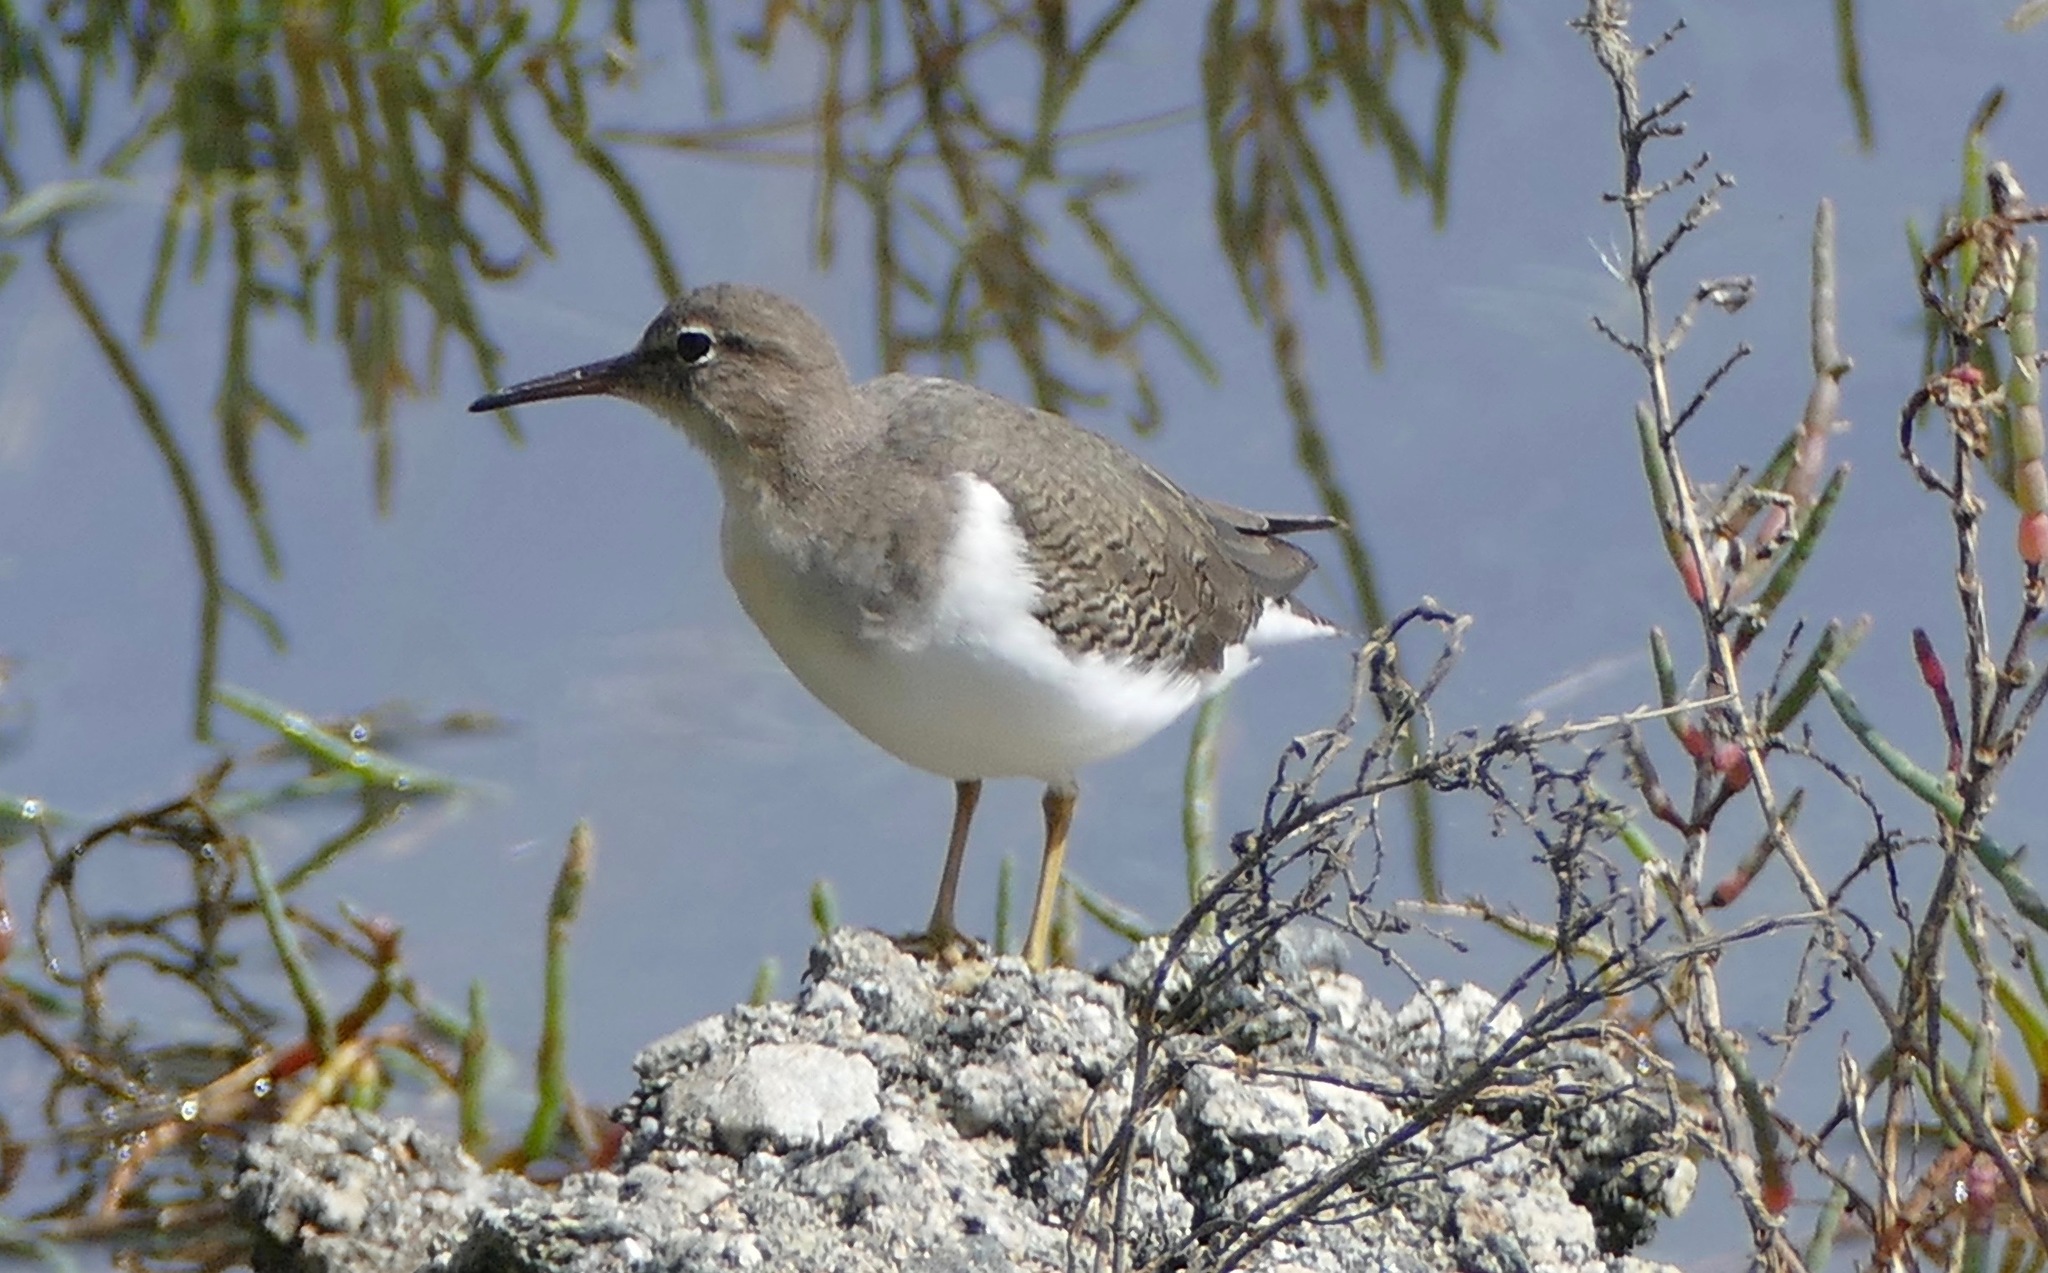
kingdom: Animalia
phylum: Chordata
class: Aves
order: Charadriiformes
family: Scolopacidae
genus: Actitis
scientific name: Actitis macularius
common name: Spotted sandpiper
